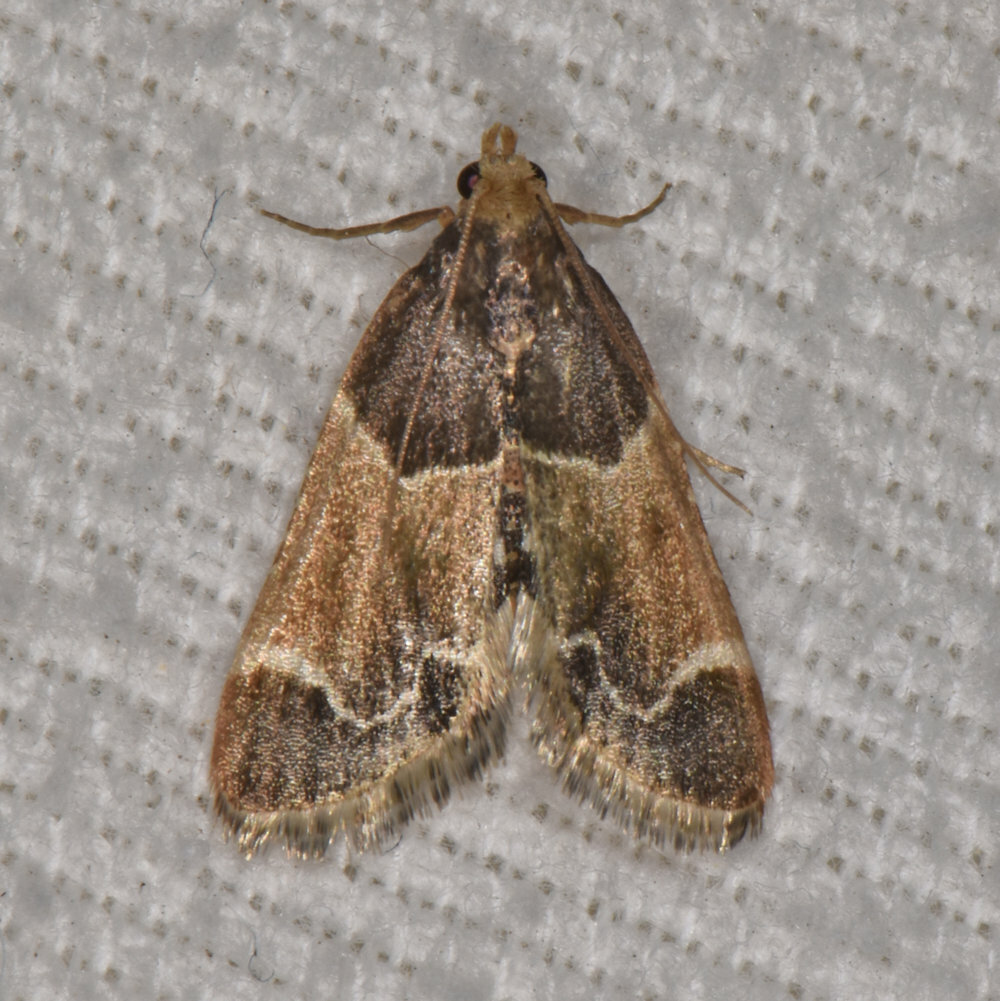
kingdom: Animalia
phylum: Arthropoda
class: Insecta
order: Lepidoptera
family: Pyralidae
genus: Pyralis
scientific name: Pyralis farinalis
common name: Meal moth
